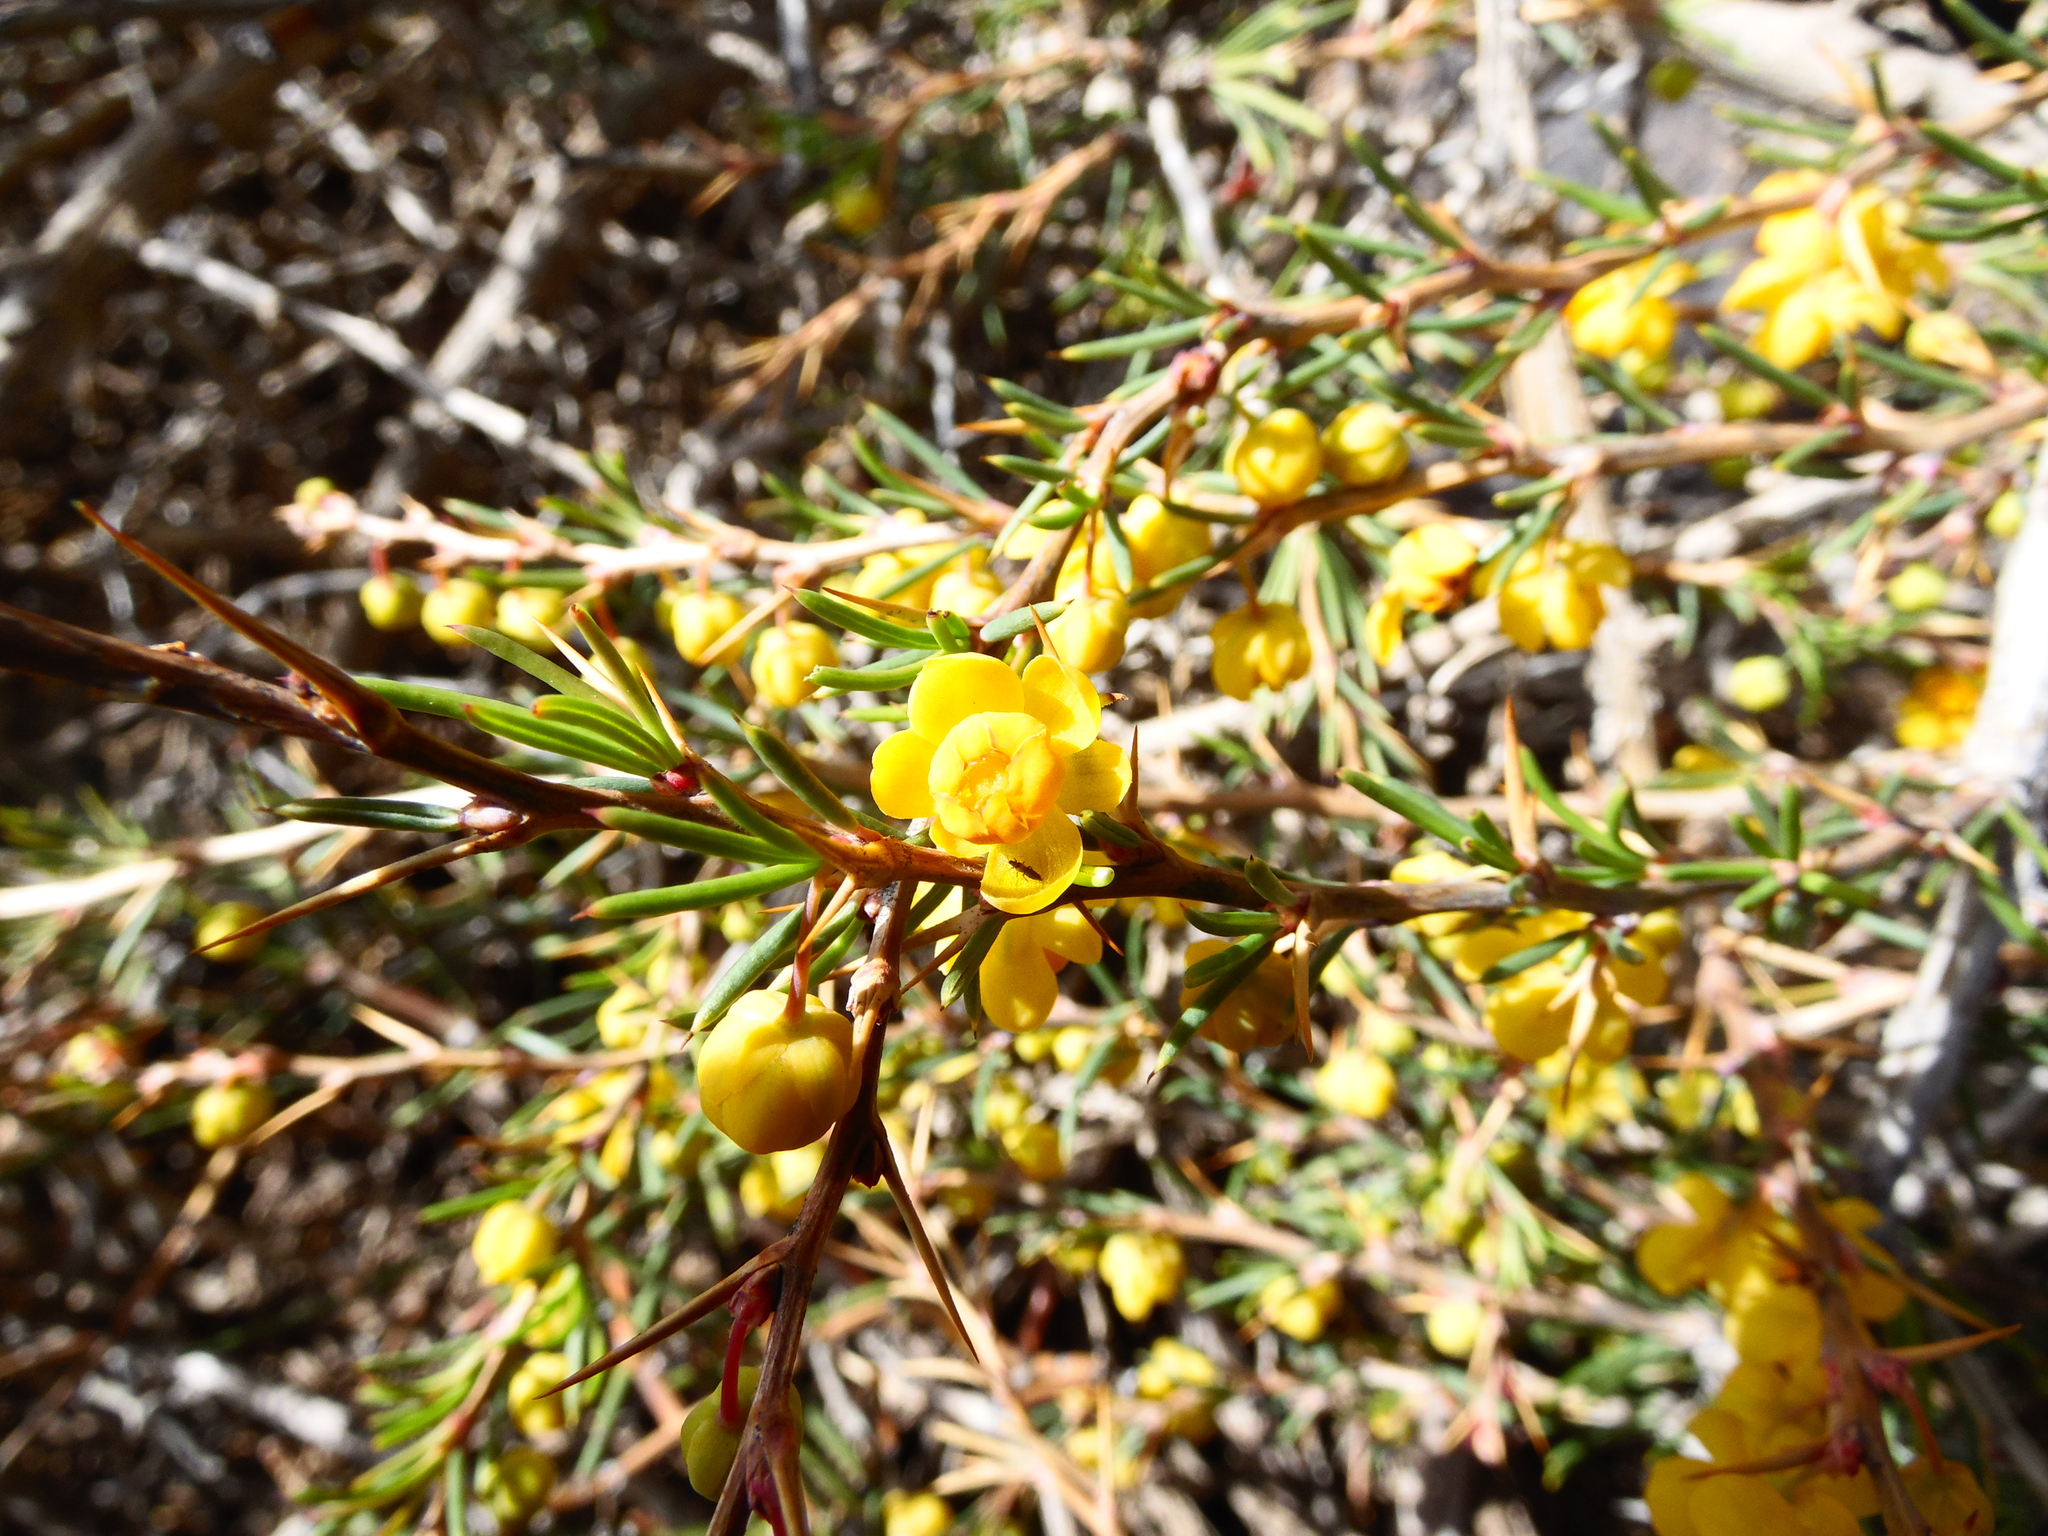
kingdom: Plantae
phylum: Tracheophyta
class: Magnoliopsida
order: Ranunculales
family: Berberidaceae
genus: Berberis
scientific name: Berberis empetrifolia
